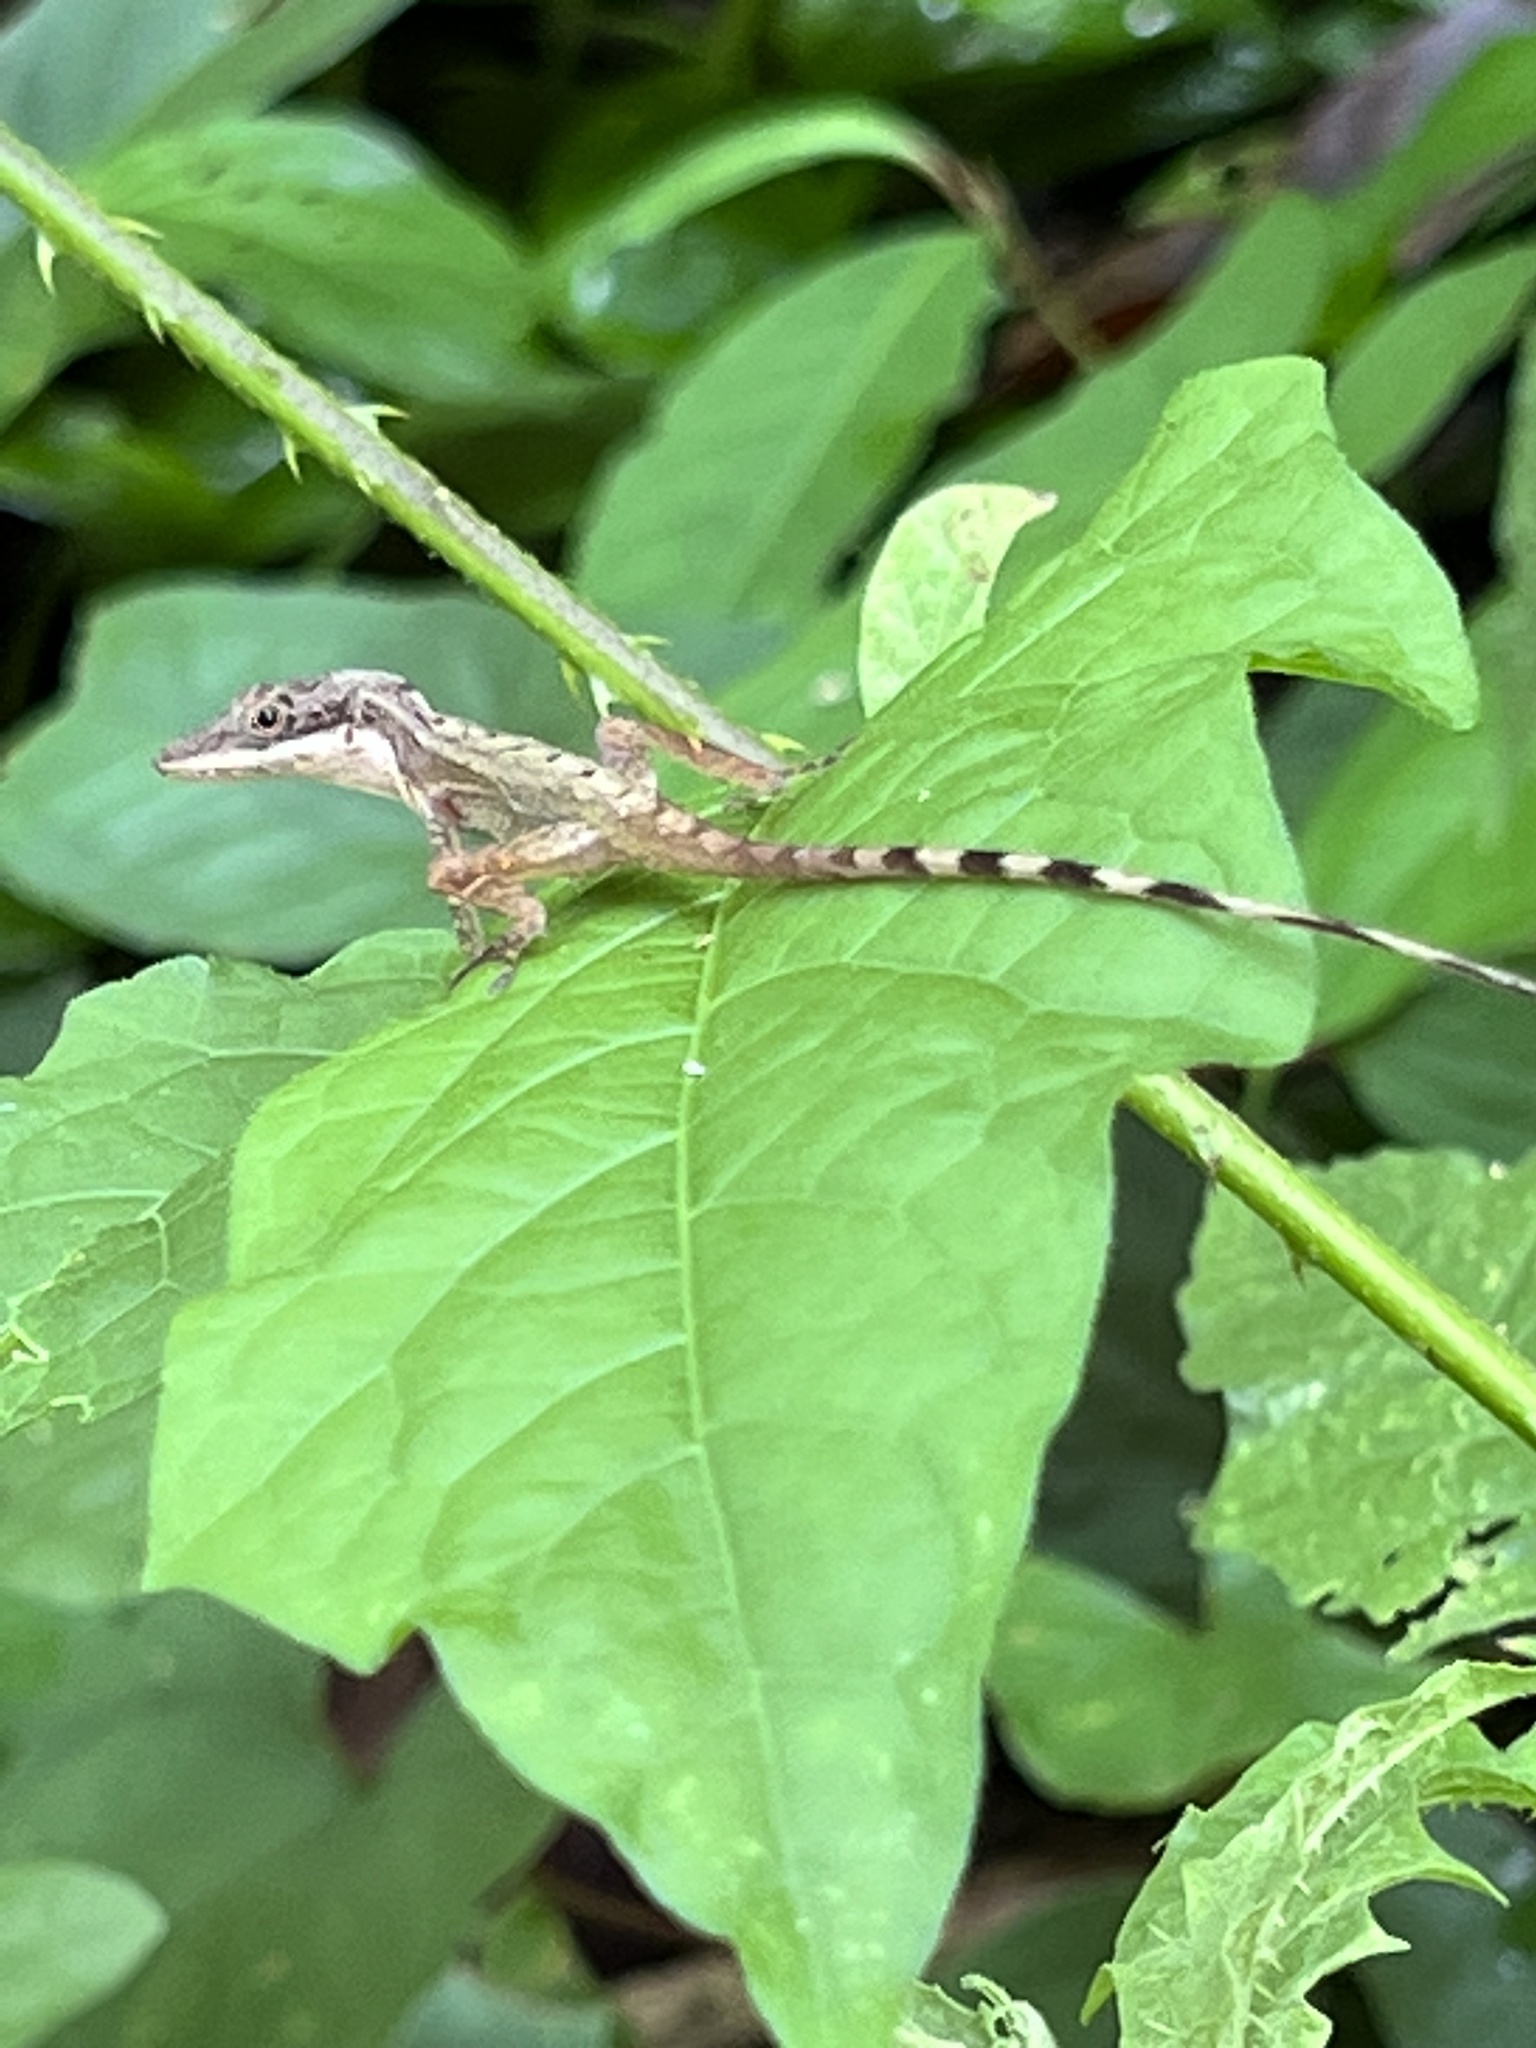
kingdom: Animalia
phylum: Chordata
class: Squamata
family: Dactyloidae
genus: Anolis
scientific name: Anolis limifrons
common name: Border anole
